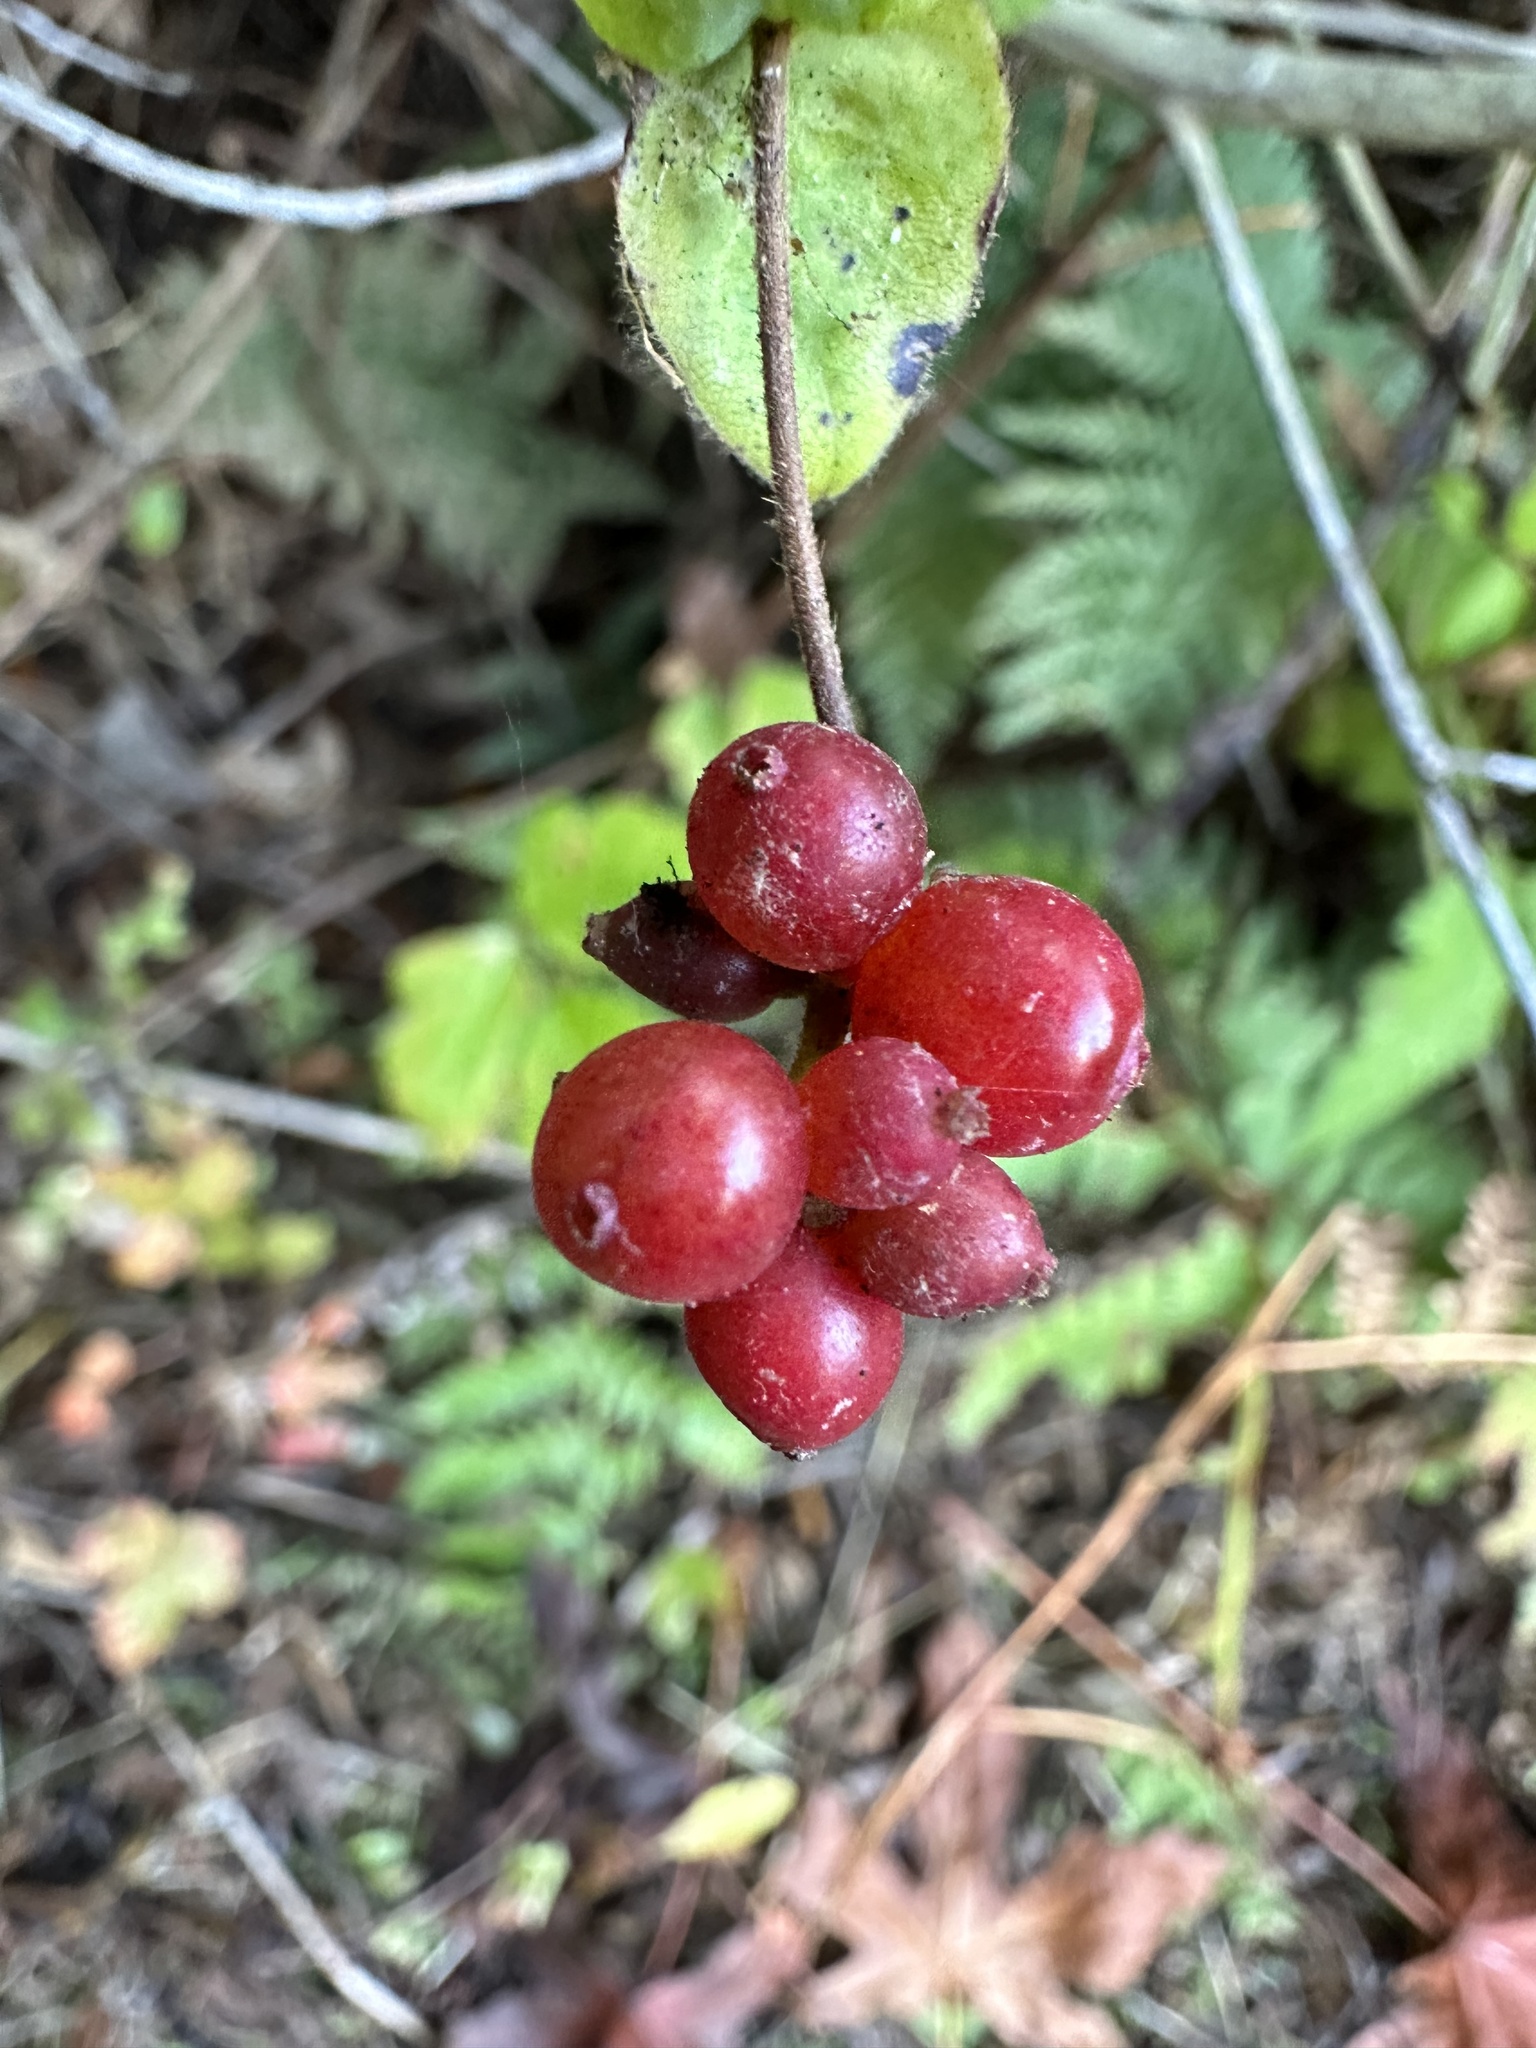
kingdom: Plantae
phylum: Tracheophyta
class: Magnoliopsida
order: Dipsacales
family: Caprifoliaceae
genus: Lonicera
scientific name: Lonicera hispidula
